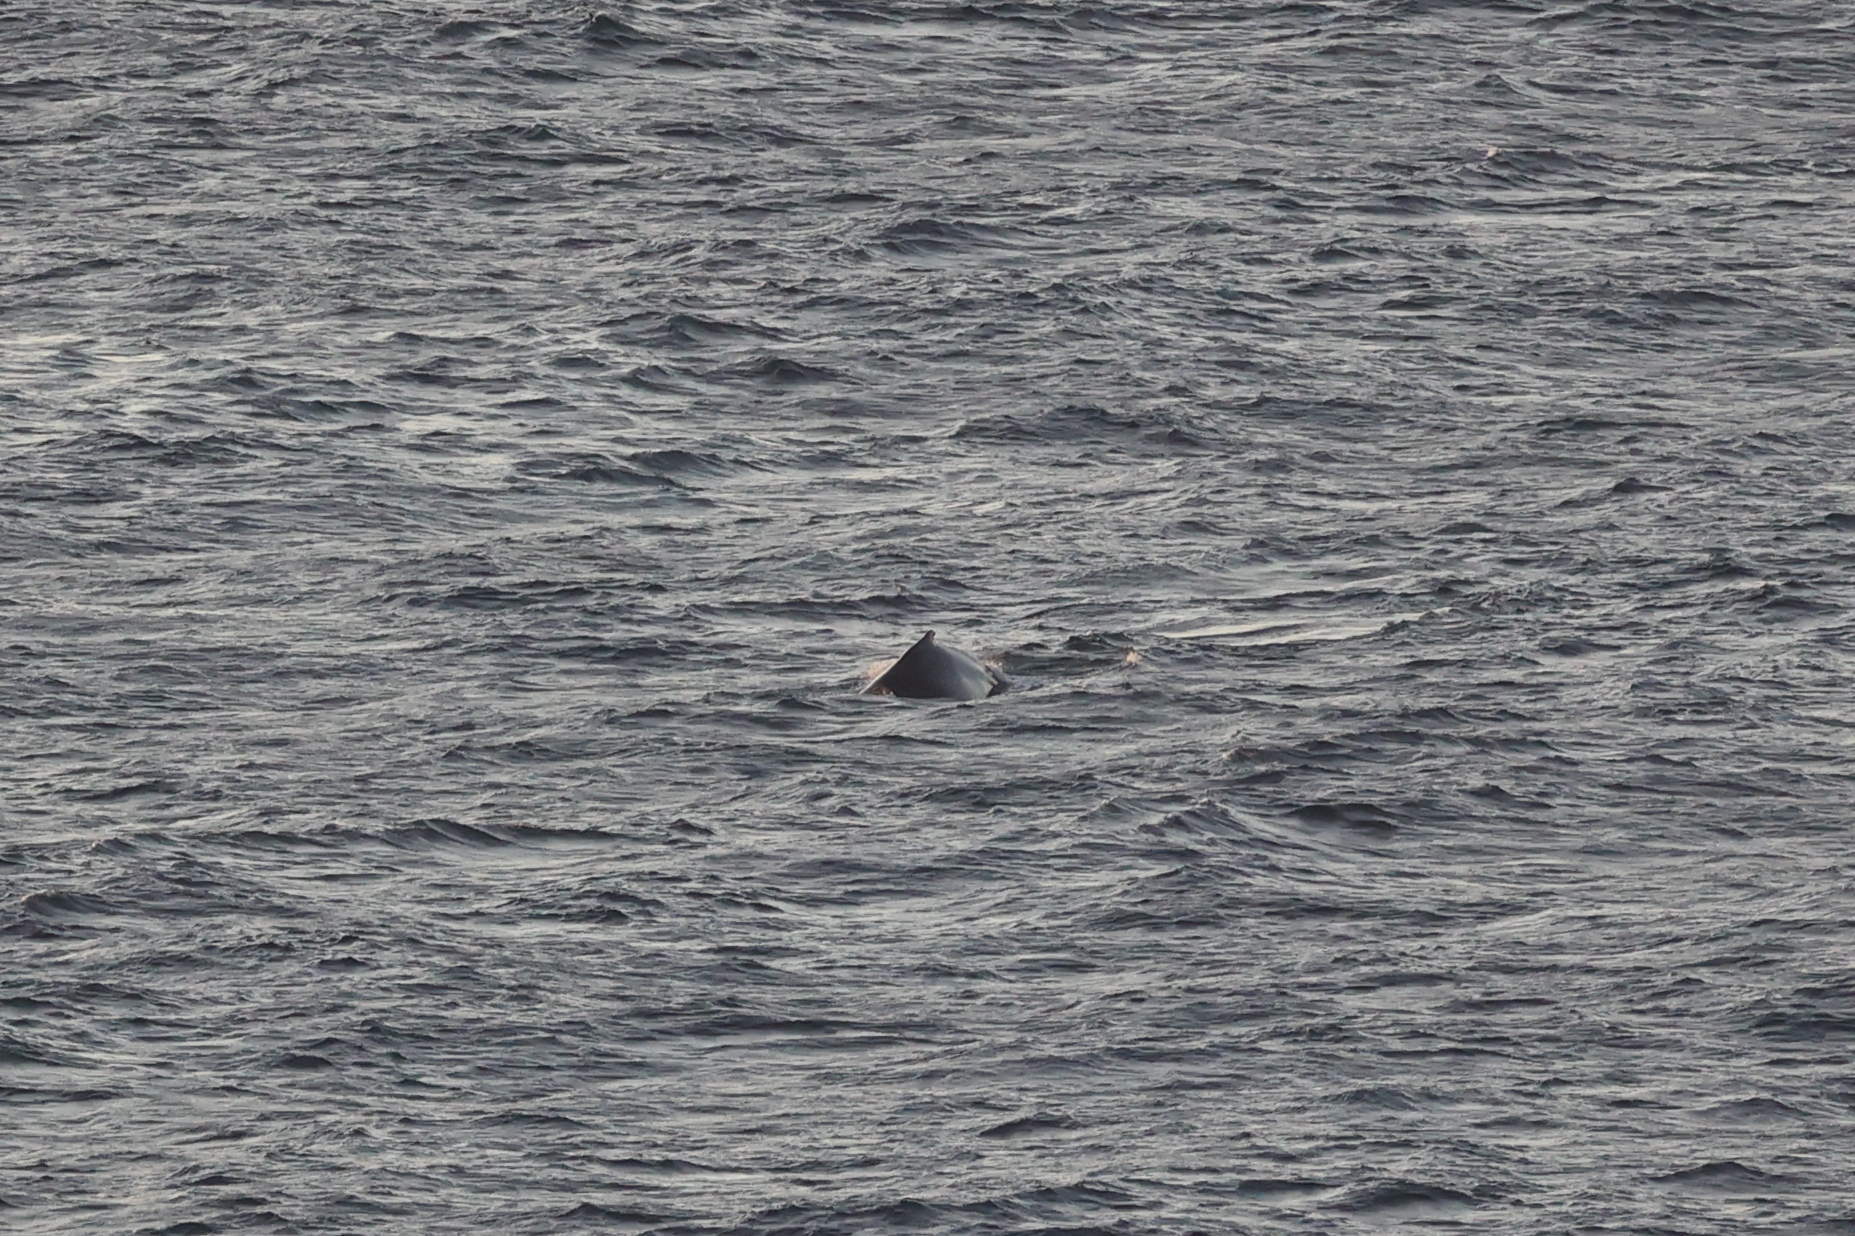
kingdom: Animalia
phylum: Chordata
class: Mammalia
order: Cetacea
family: Balaenopteridae
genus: Megaptera
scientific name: Megaptera novaeangliae
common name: Humpback whale
